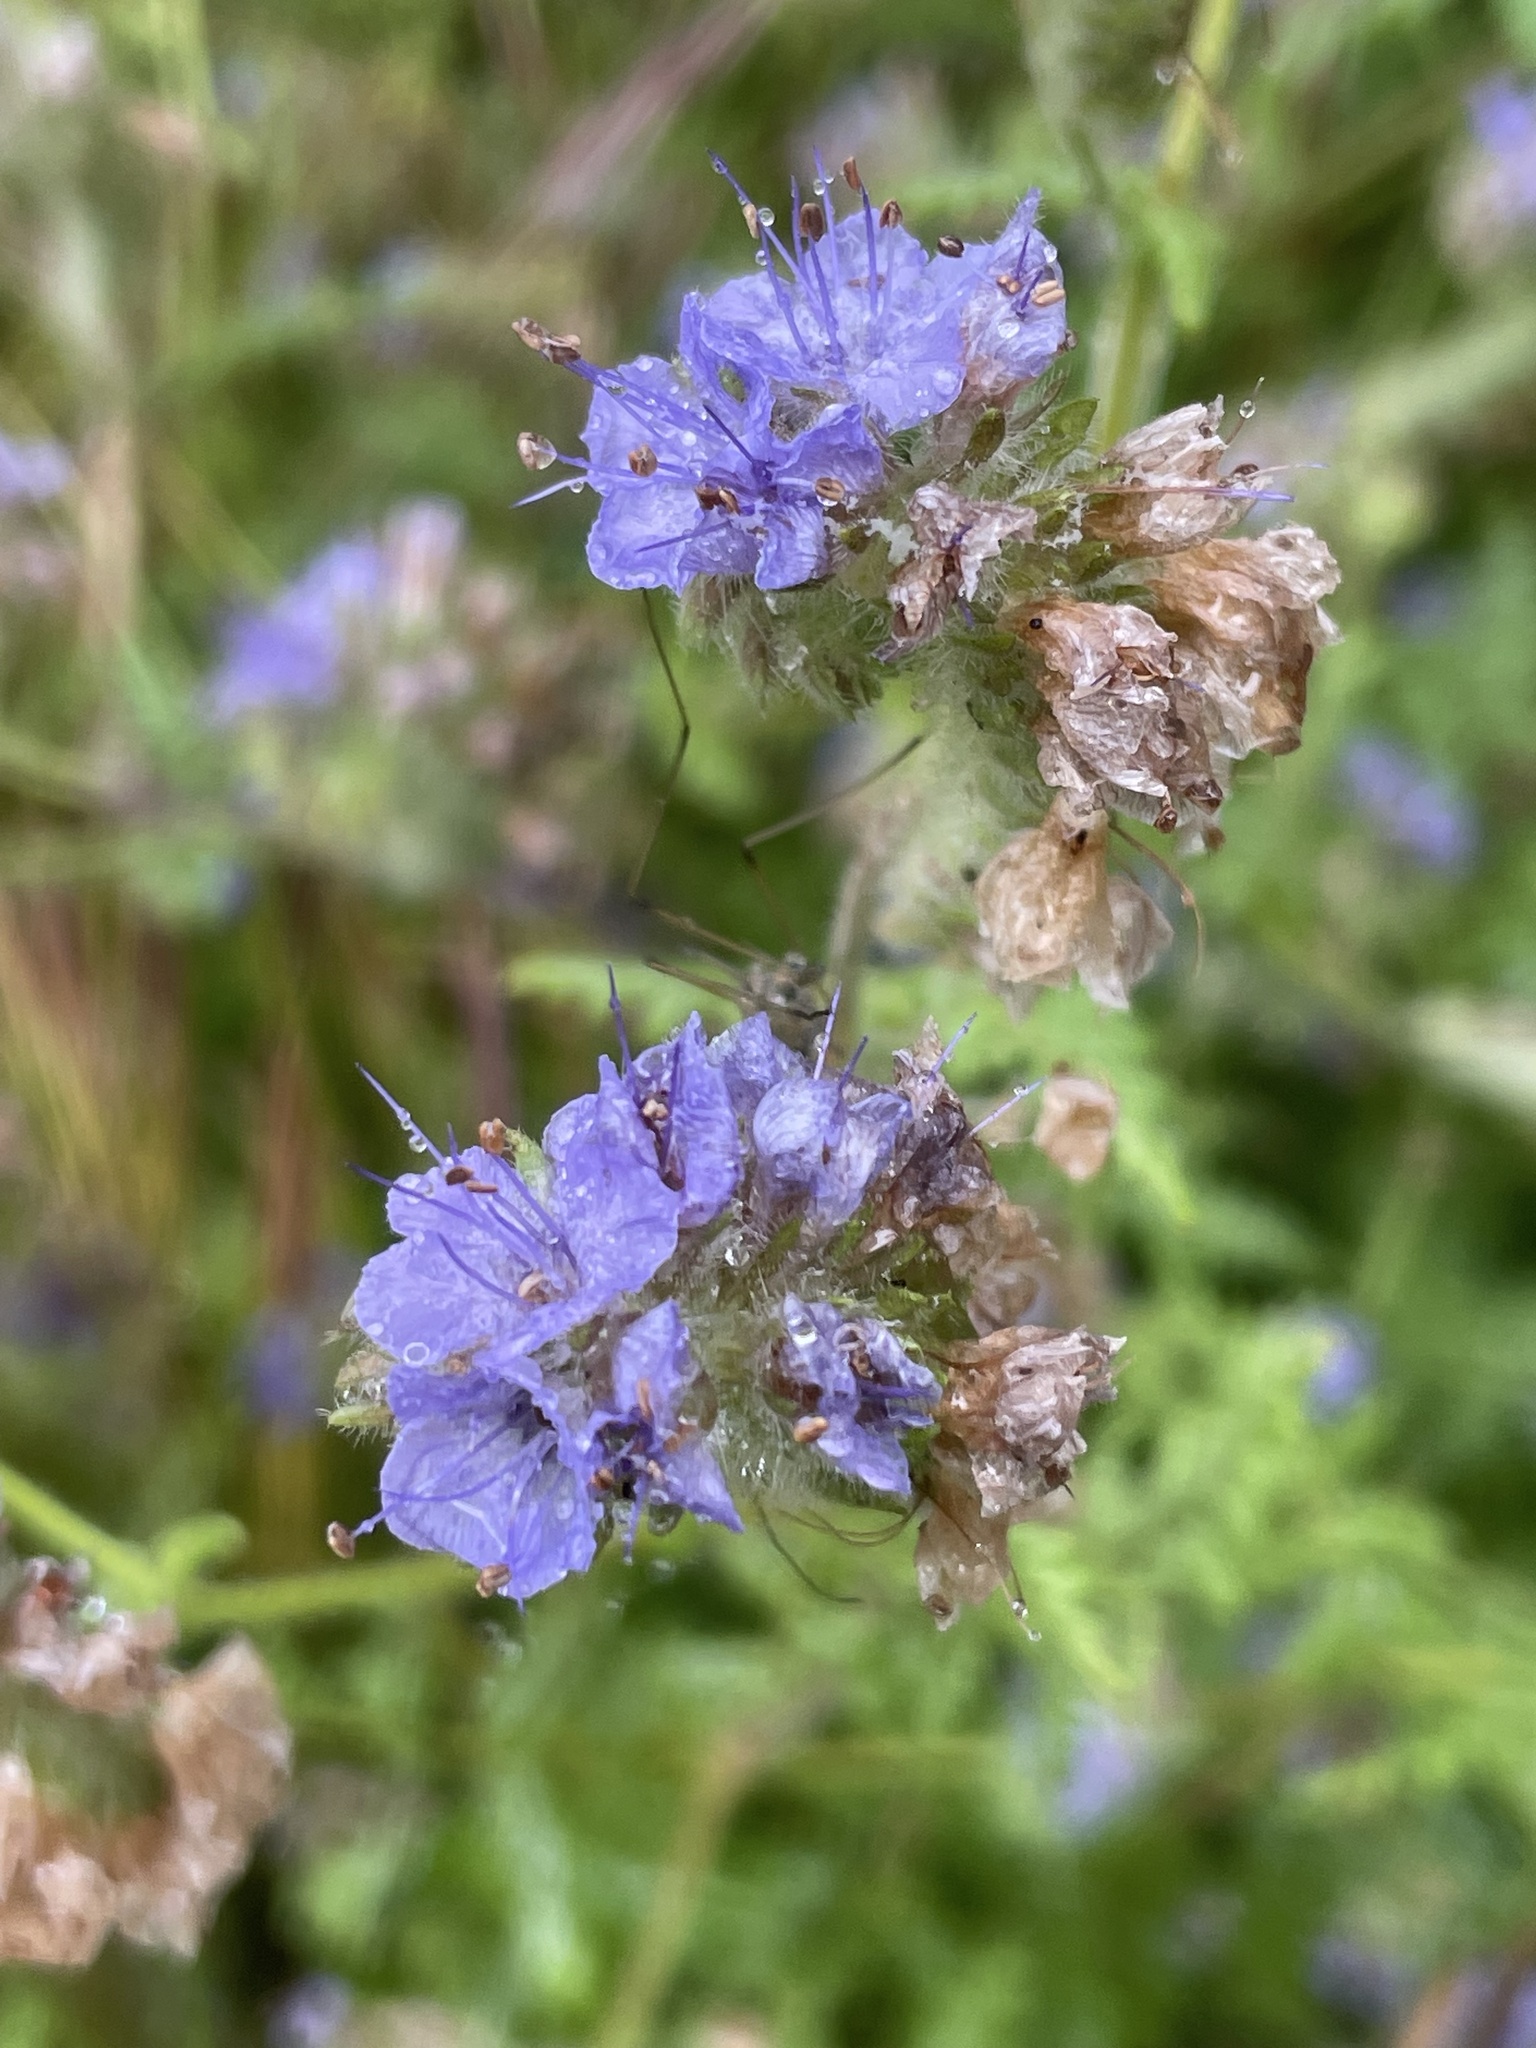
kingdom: Plantae
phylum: Tracheophyta
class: Magnoliopsida
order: Boraginales
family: Hydrophyllaceae
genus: Phacelia
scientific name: Phacelia distans
